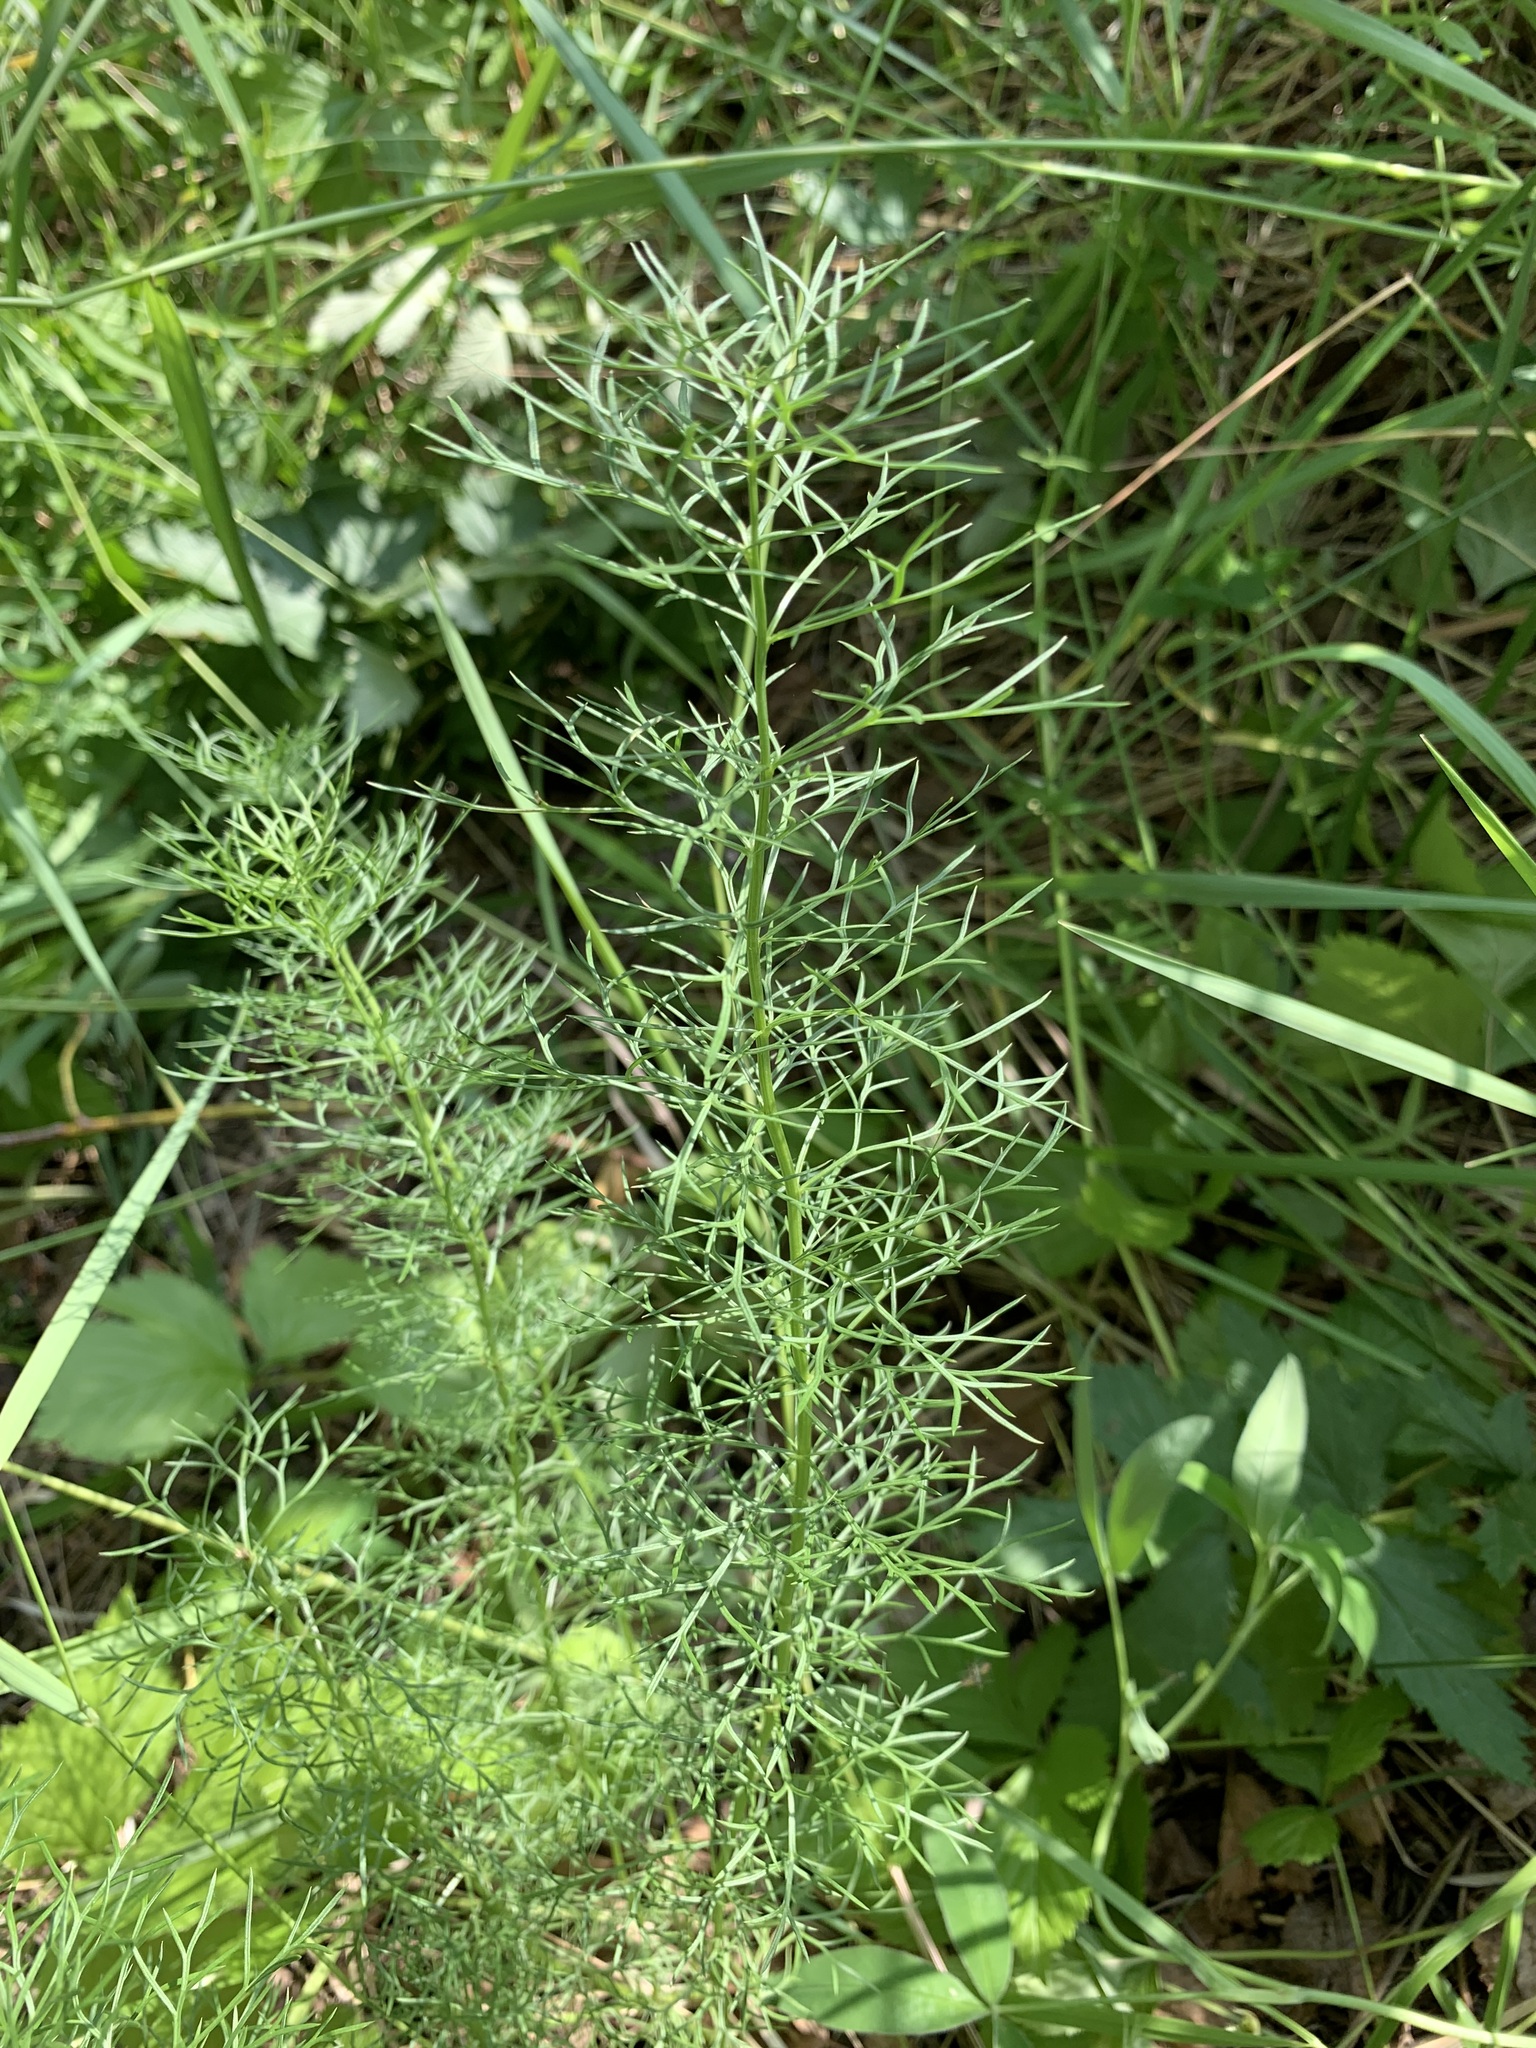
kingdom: Plantae
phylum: Tracheophyta
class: Magnoliopsida
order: Ranunculales
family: Ranunculaceae
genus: Adonis
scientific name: Adonis vernalis
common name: Yellow pheasants-eye
